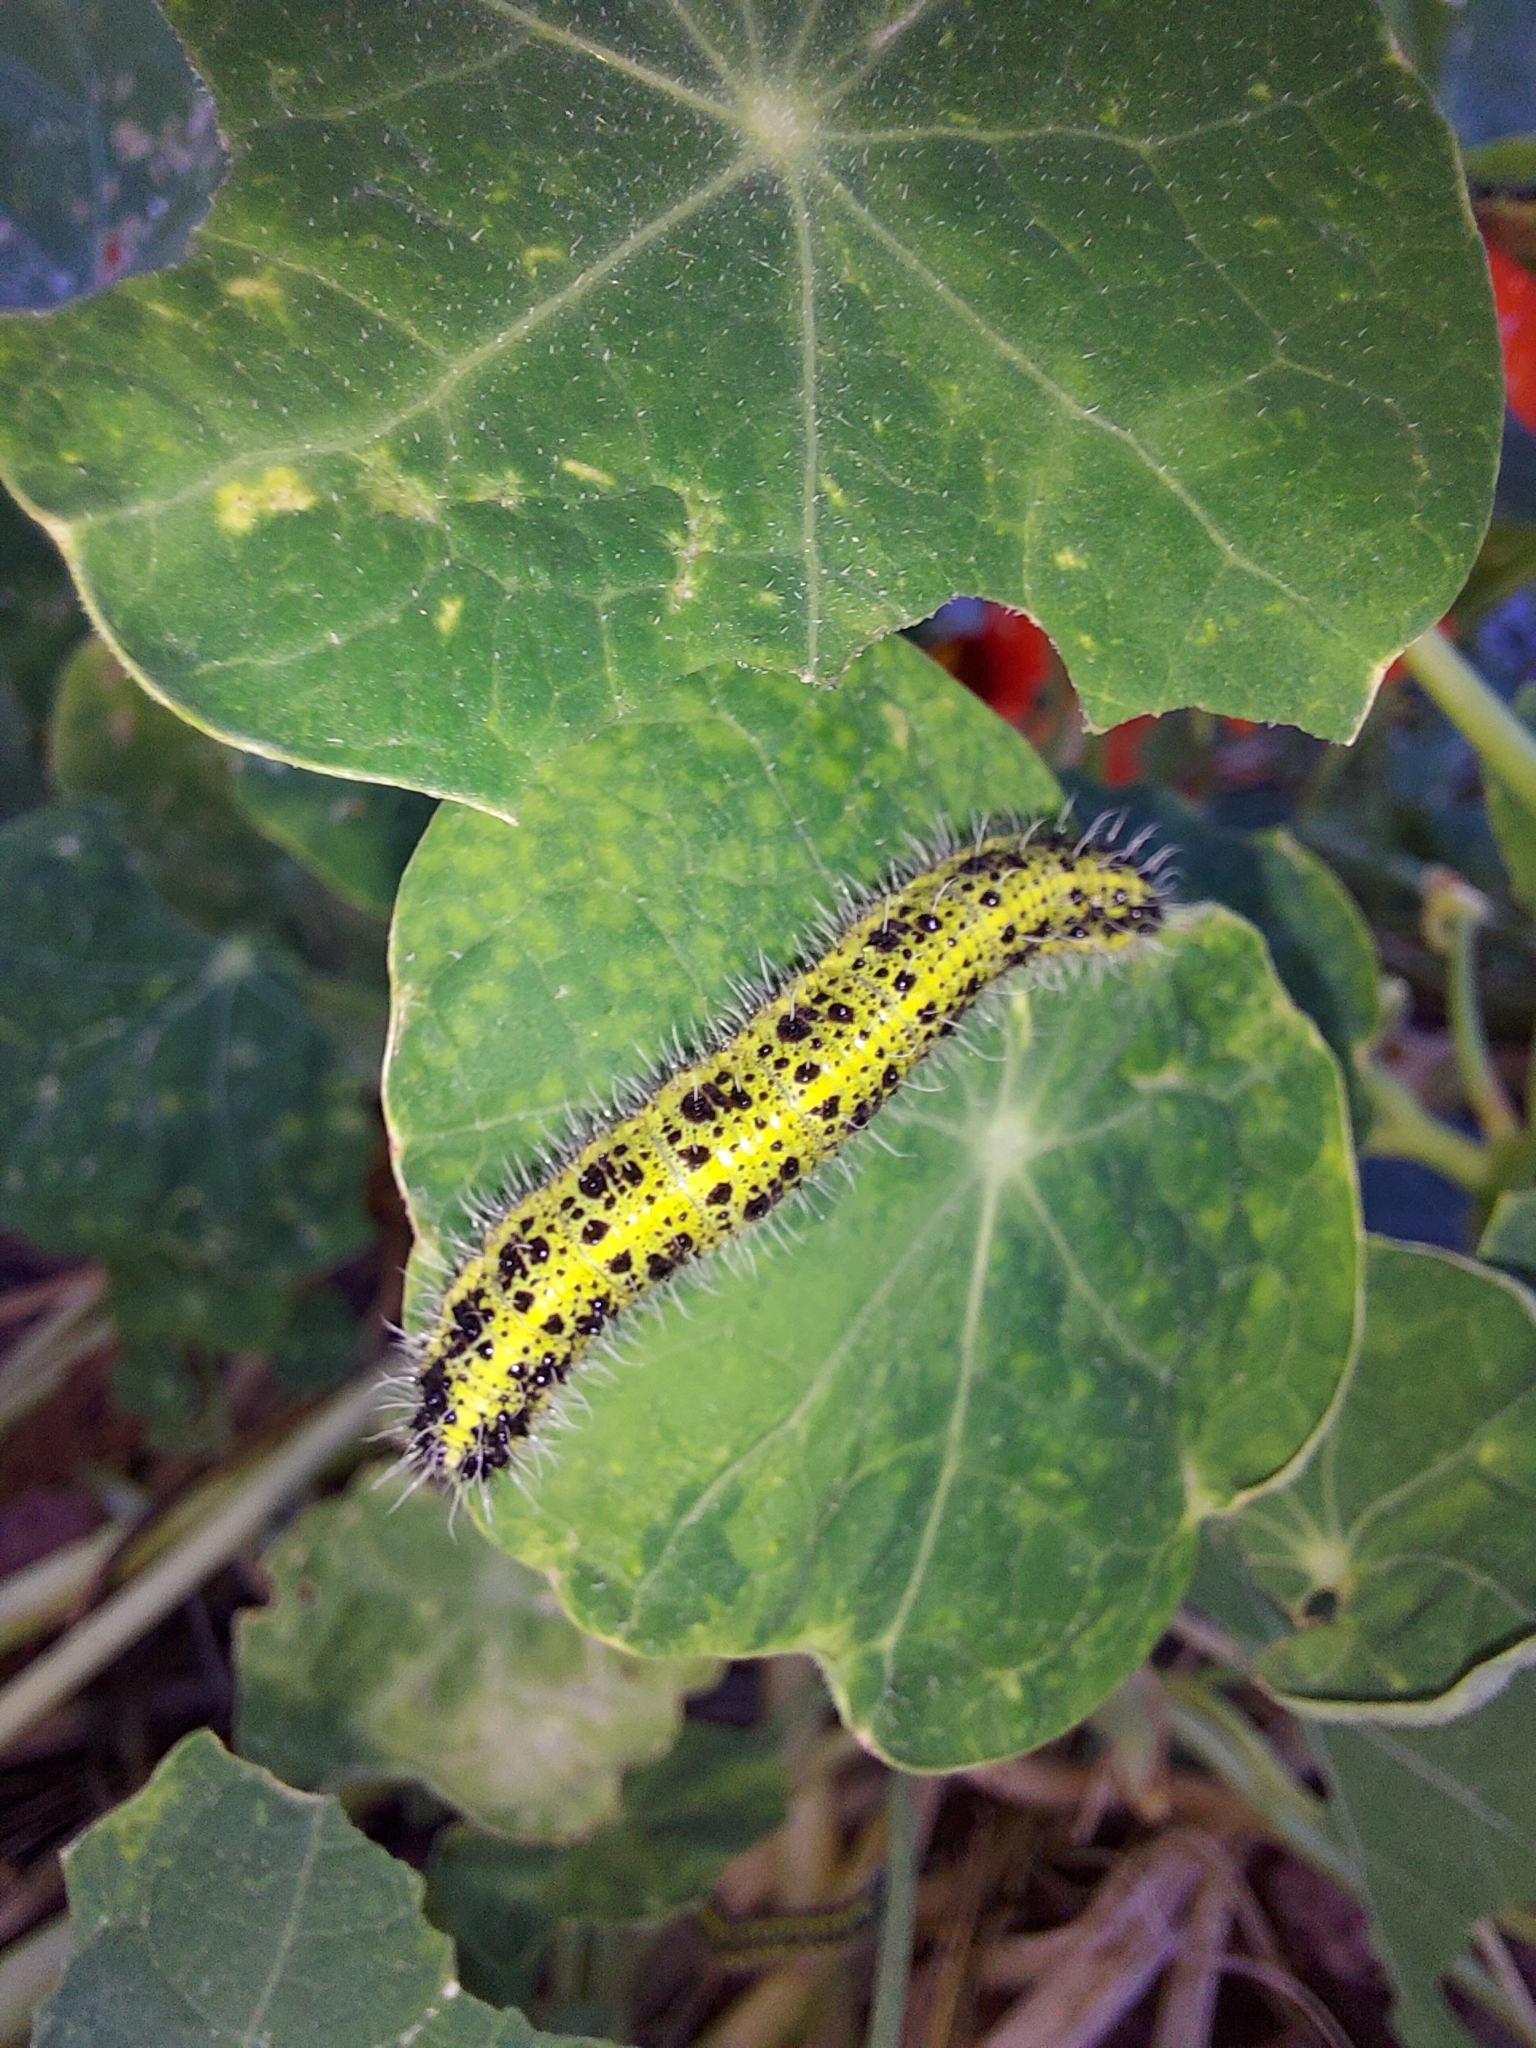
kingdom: Animalia
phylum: Arthropoda
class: Insecta
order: Lepidoptera
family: Pieridae
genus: Pieris
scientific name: Pieris brassicae
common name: Large white
